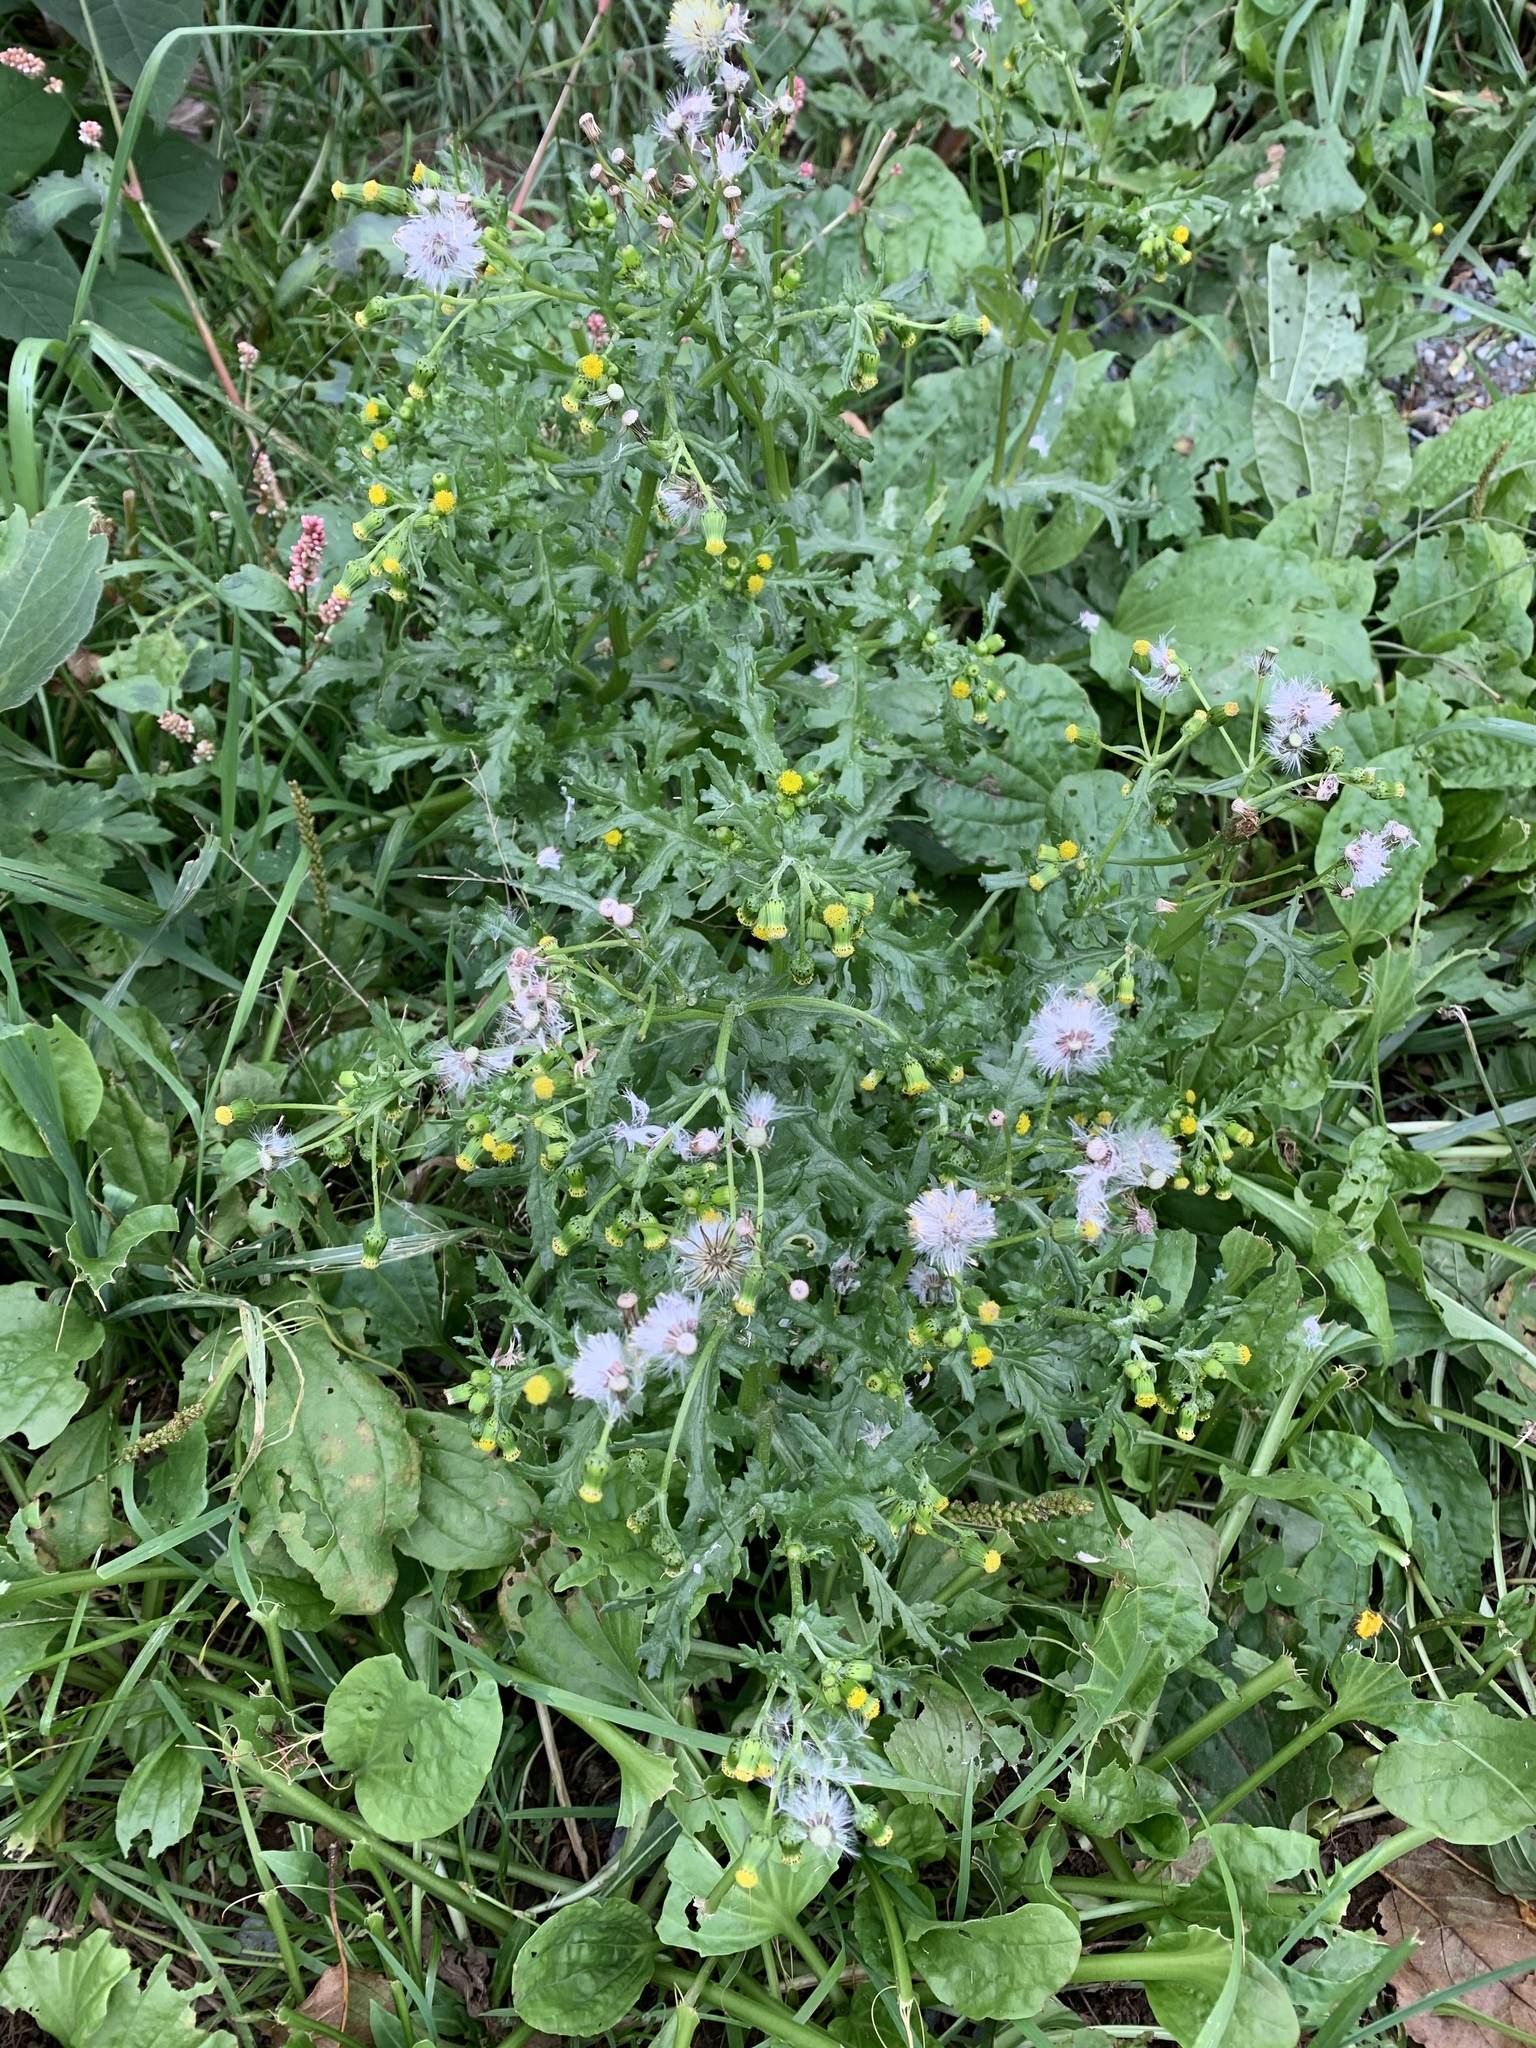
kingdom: Plantae
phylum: Tracheophyta
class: Magnoliopsida
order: Asterales
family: Asteraceae
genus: Senecio
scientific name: Senecio vulgaris
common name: Old-man-in-the-spring
